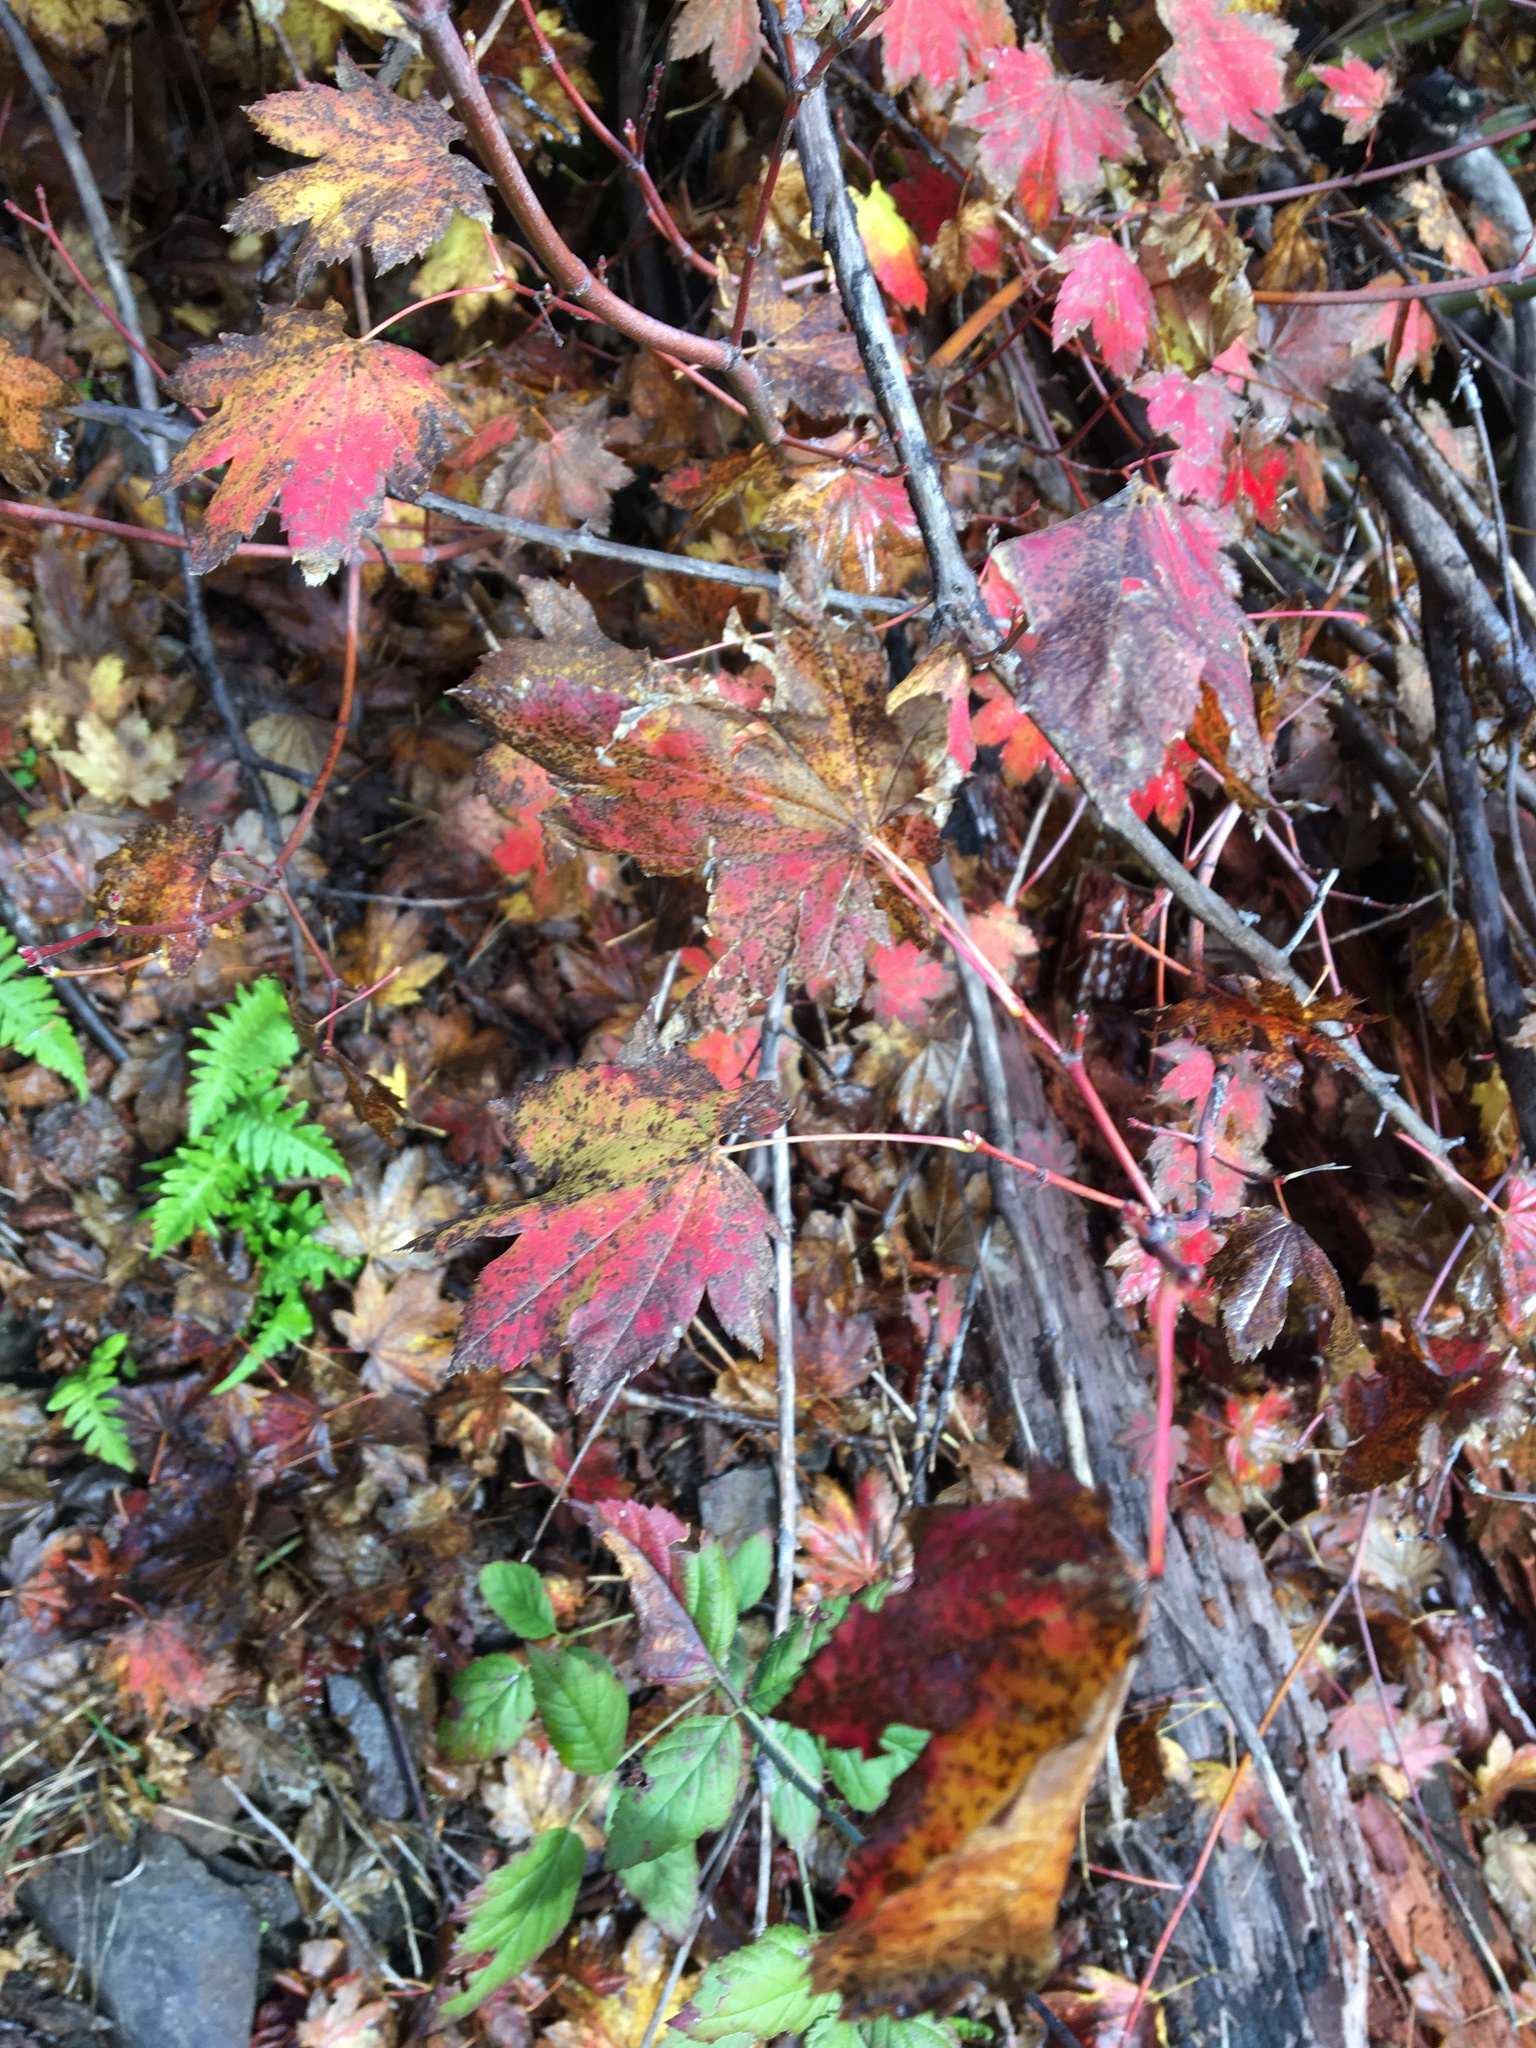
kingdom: Plantae
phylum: Tracheophyta
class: Magnoliopsida
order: Sapindales
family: Sapindaceae
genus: Acer
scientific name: Acer circinatum
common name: Vine maple
